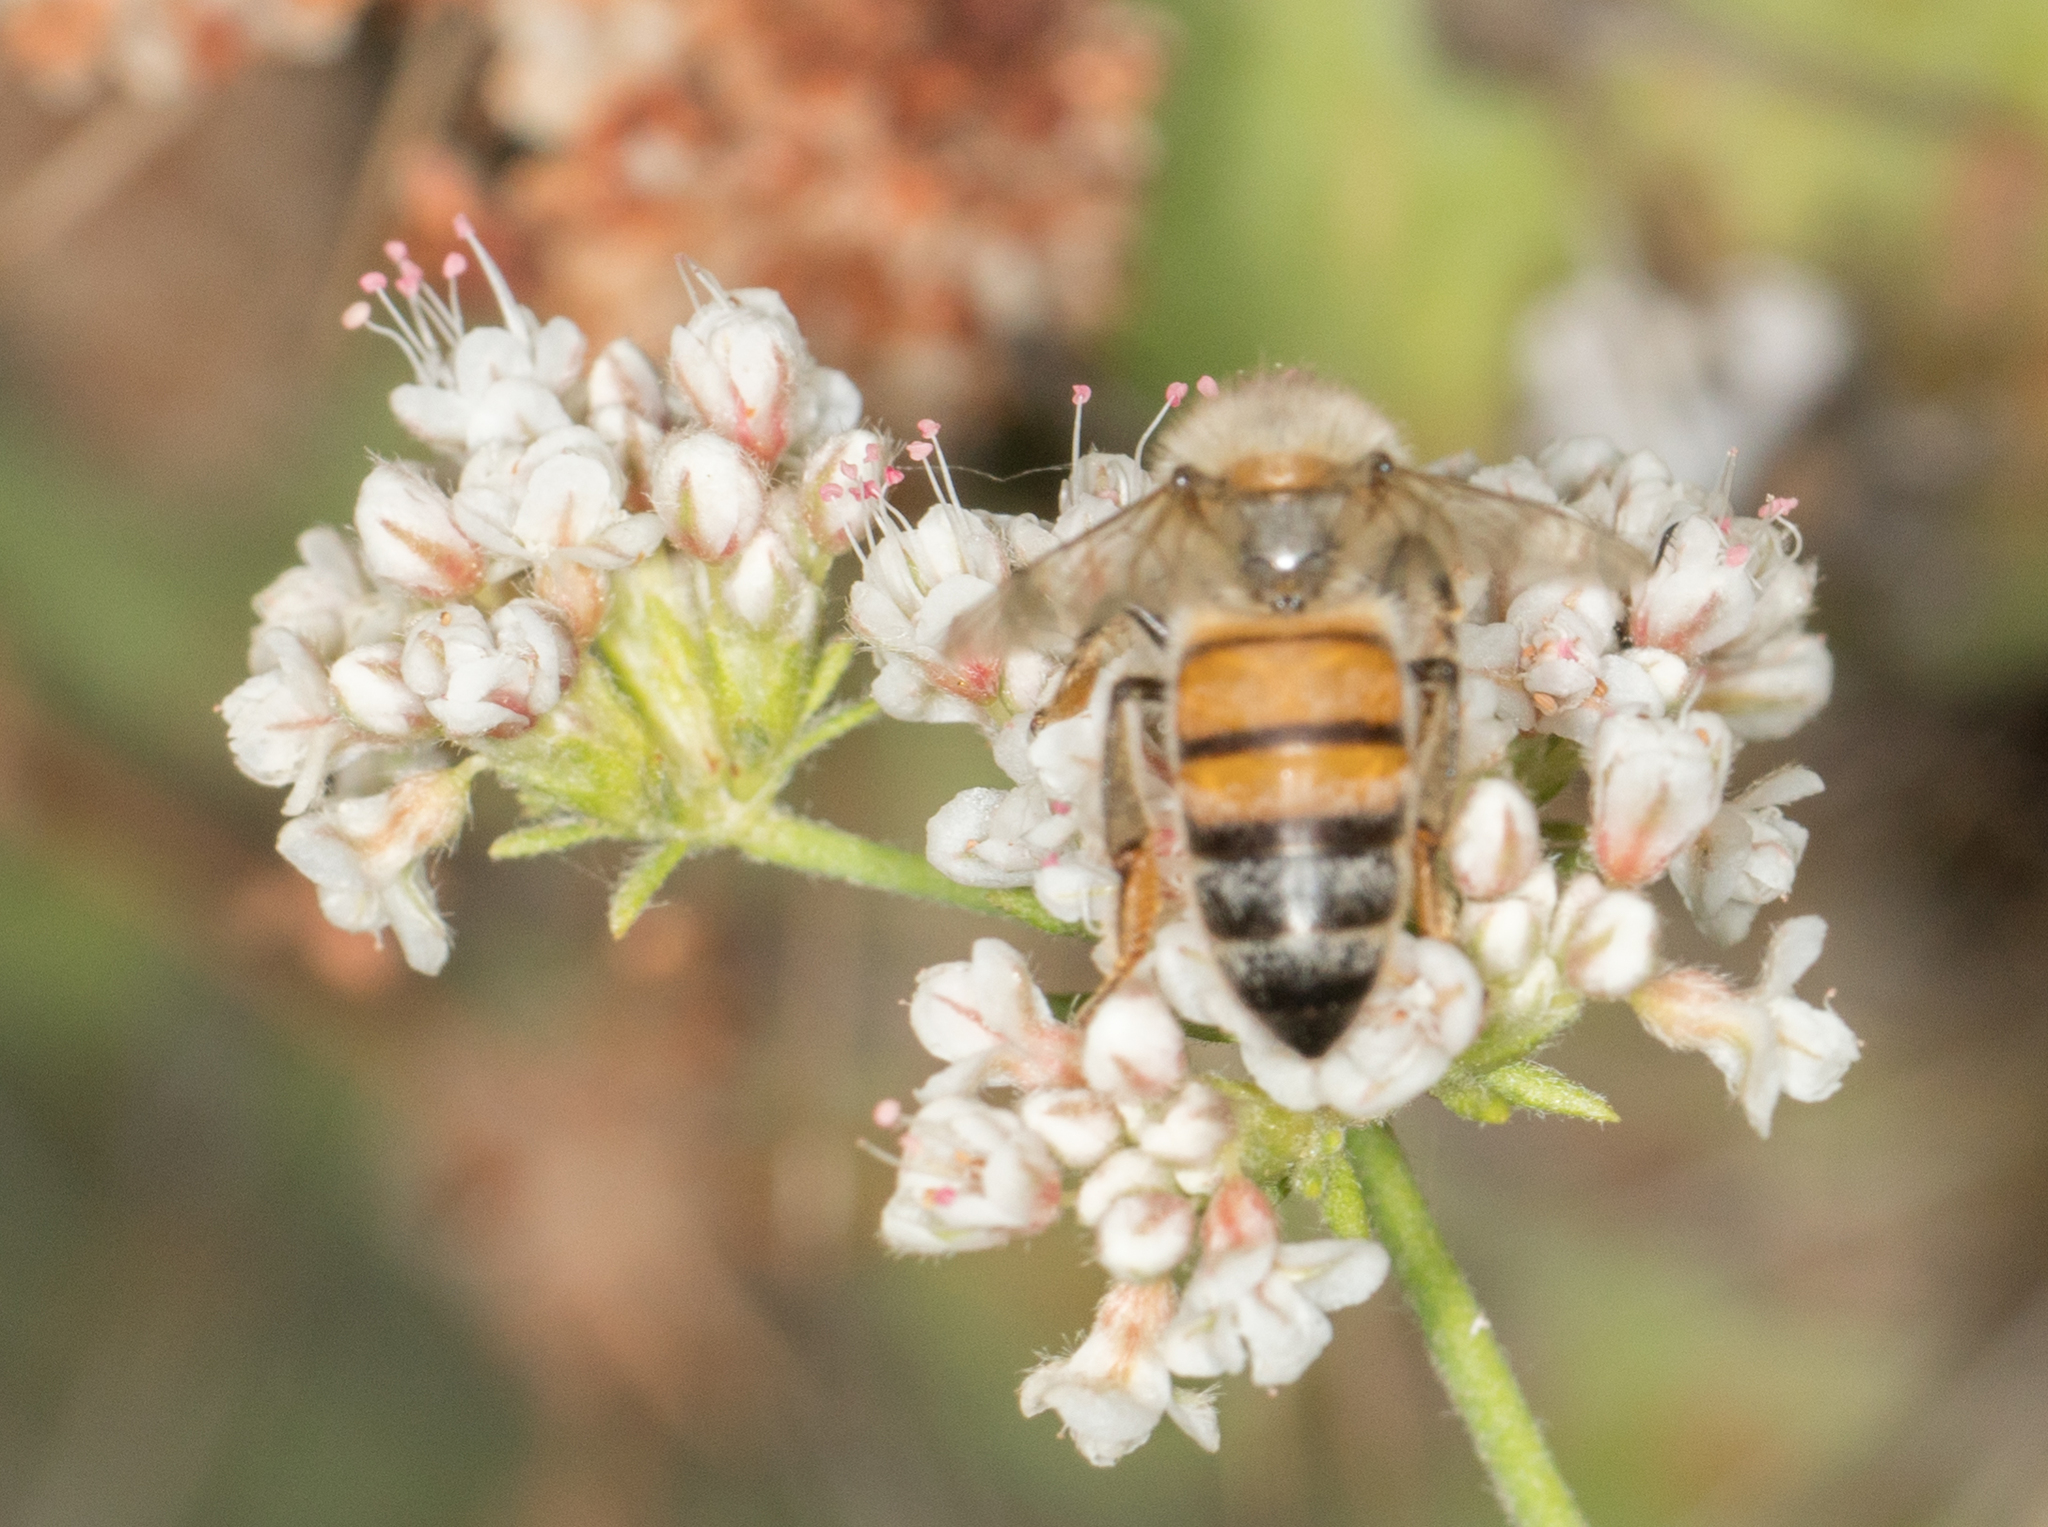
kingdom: Animalia
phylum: Arthropoda
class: Insecta
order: Hymenoptera
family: Apidae
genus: Apis
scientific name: Apis mellifera
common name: Honey bee
